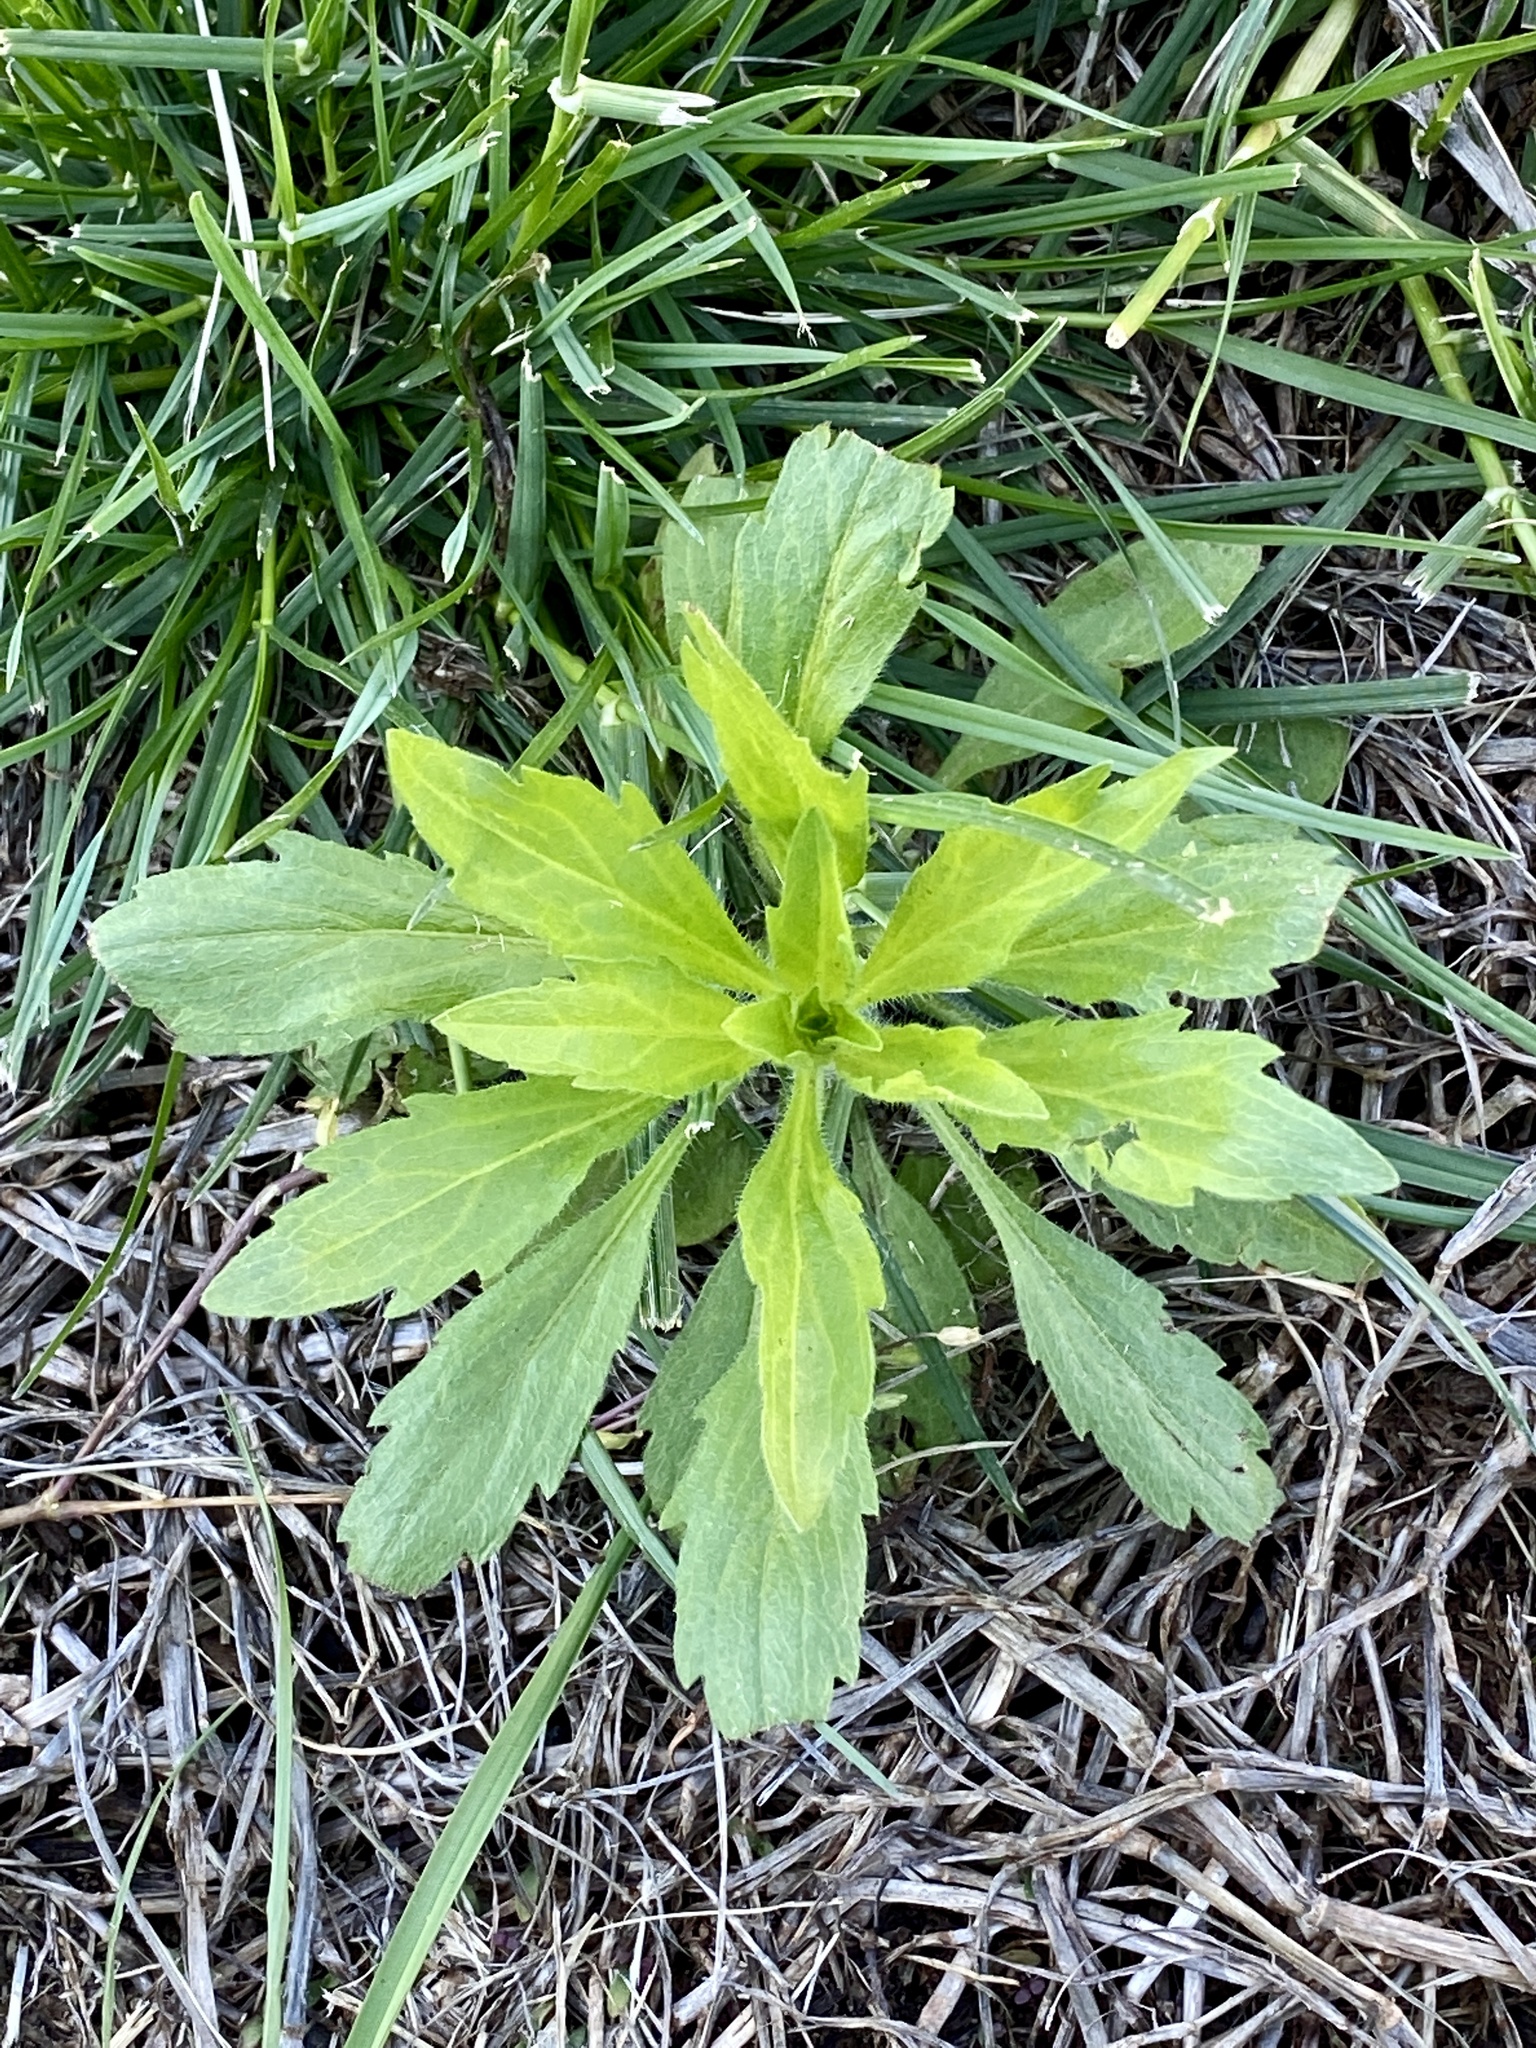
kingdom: Plantae
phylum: Tracheophyta
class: Magnoliopsida
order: Asterales
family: Asteraceae
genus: Erigeron
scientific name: Erigeron canadensis
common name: Canadian fleabane
